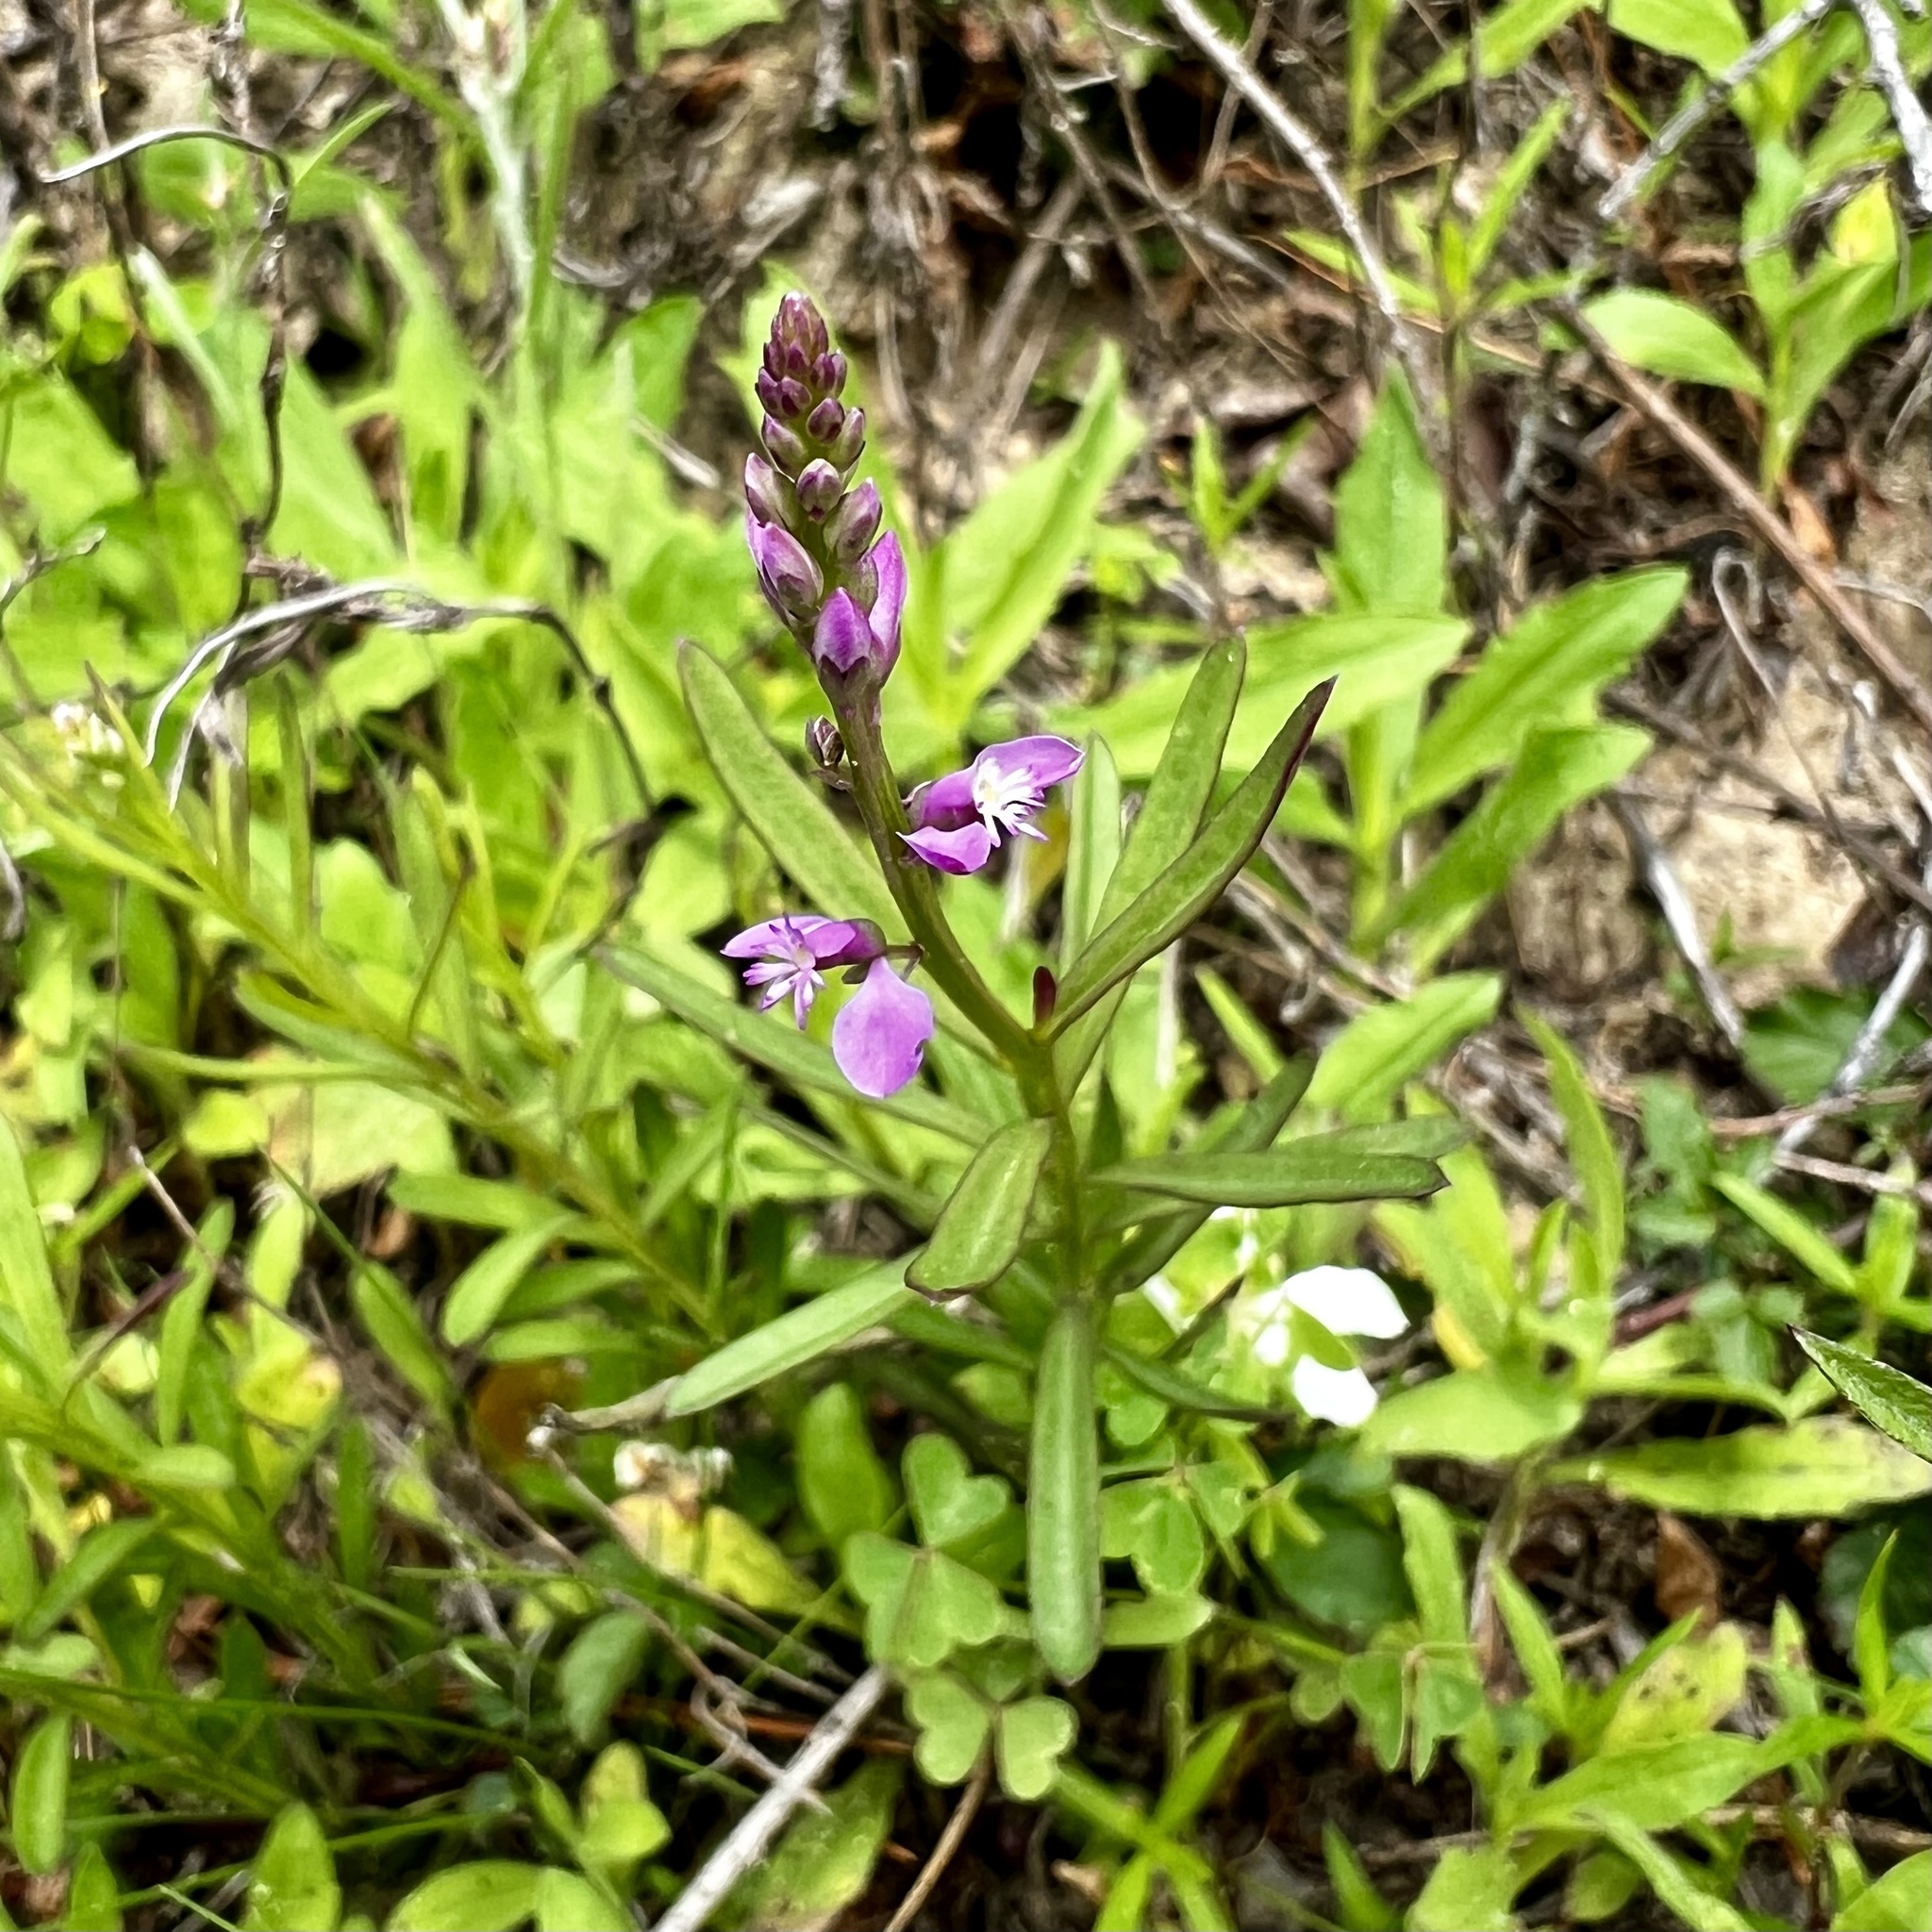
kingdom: Plantae
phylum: Tracheophyta
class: Magnoliopsida
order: Fabales
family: Polygalaceae
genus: Polygala
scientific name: Polygala polygama
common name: Bitter milkwort
